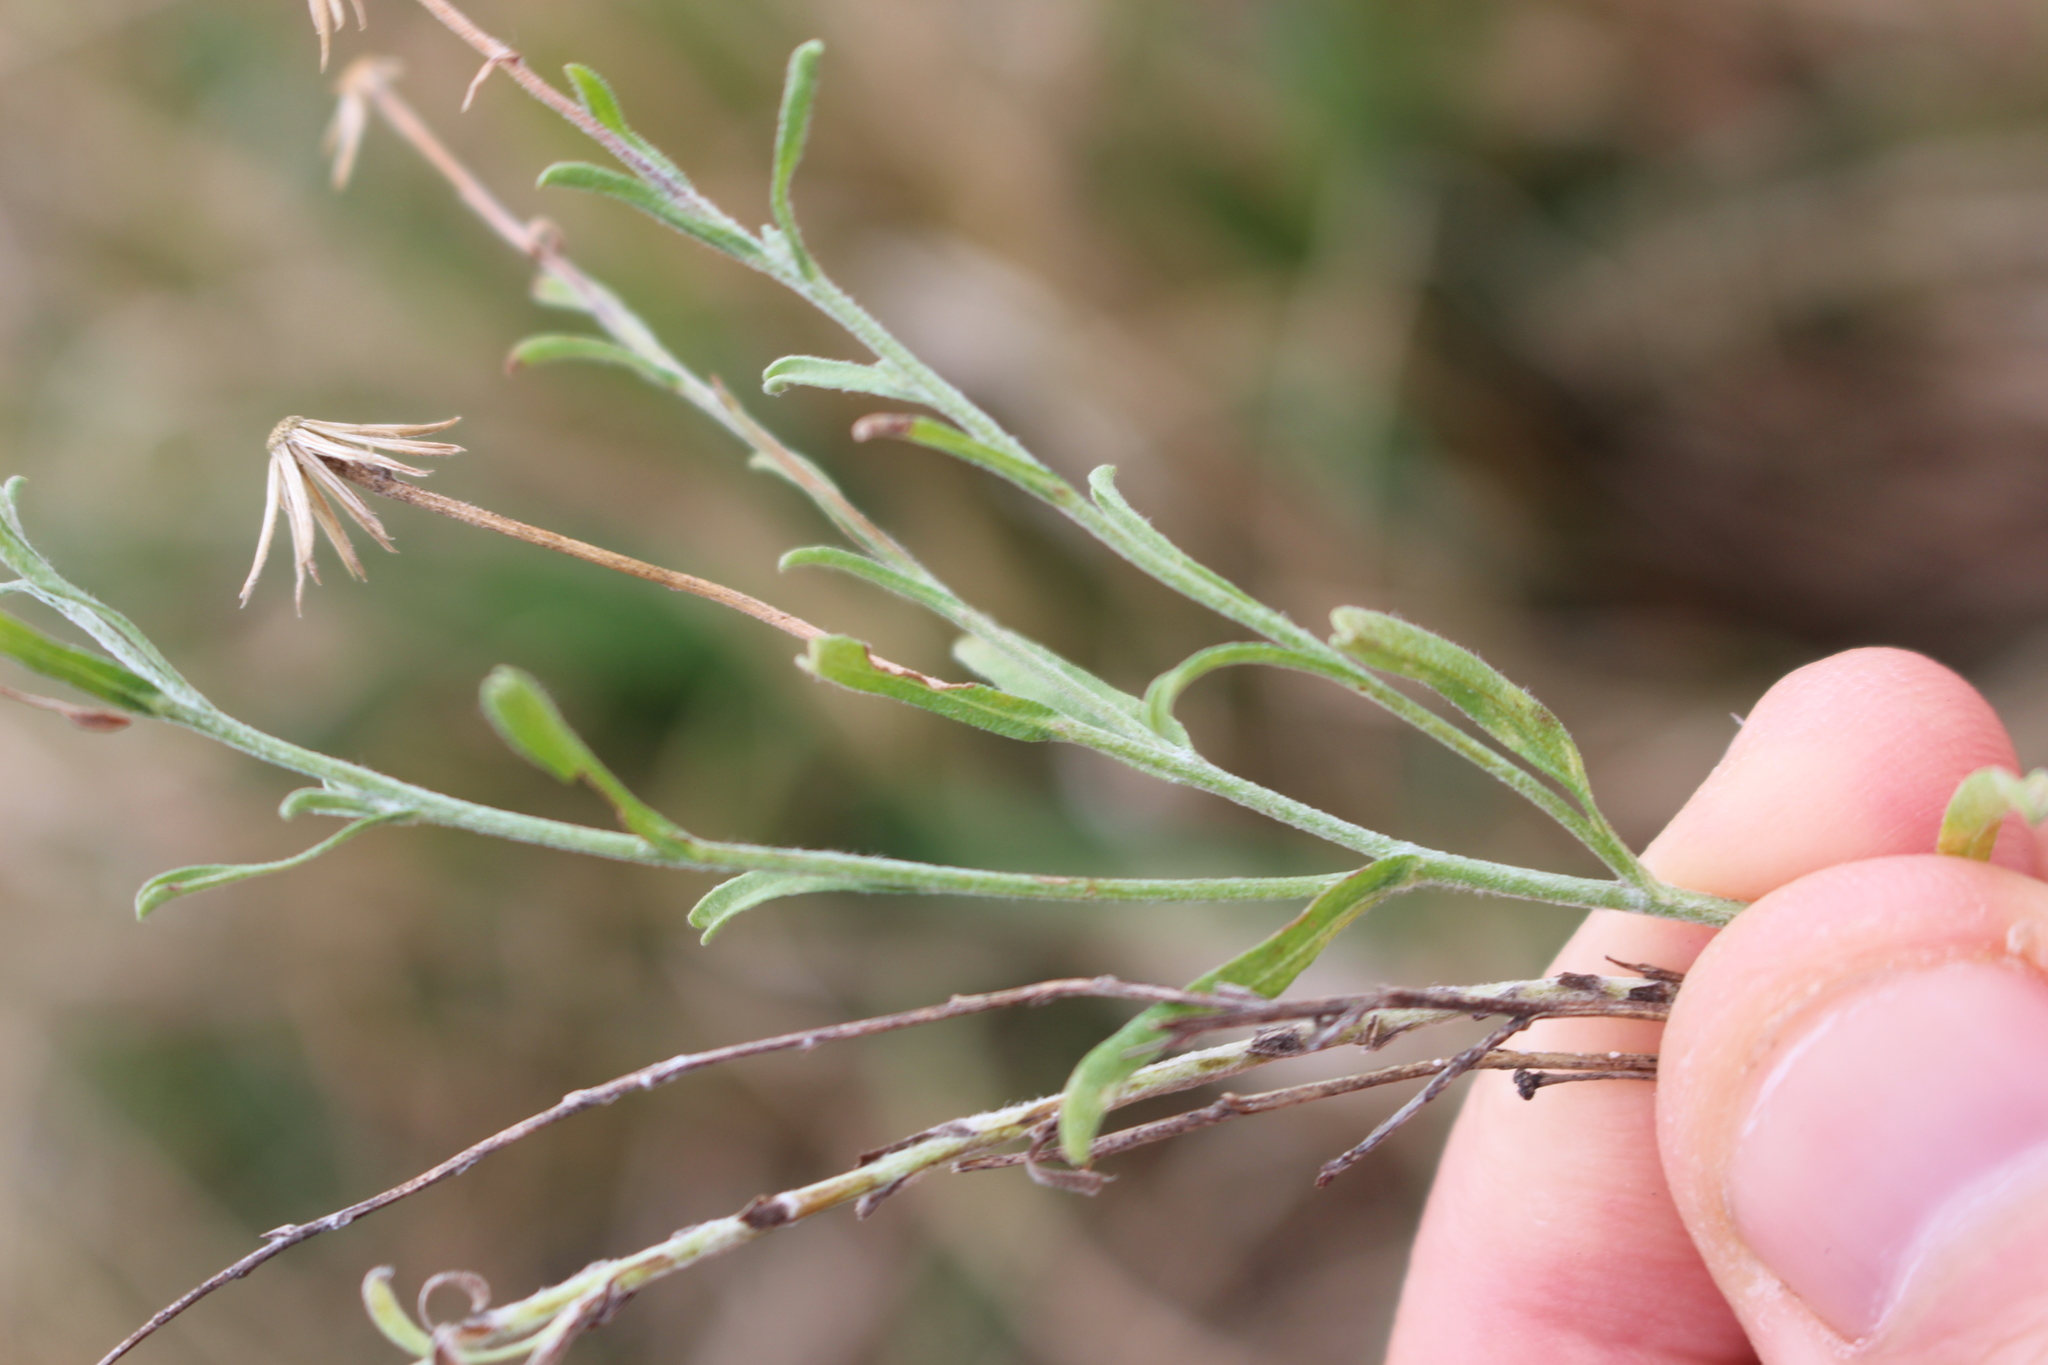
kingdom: Plantae
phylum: Tracheophyta
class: Magnoliopsida
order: Asterales
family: Asteraceae
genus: Vittadinia
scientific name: Vittadinia gracilis
